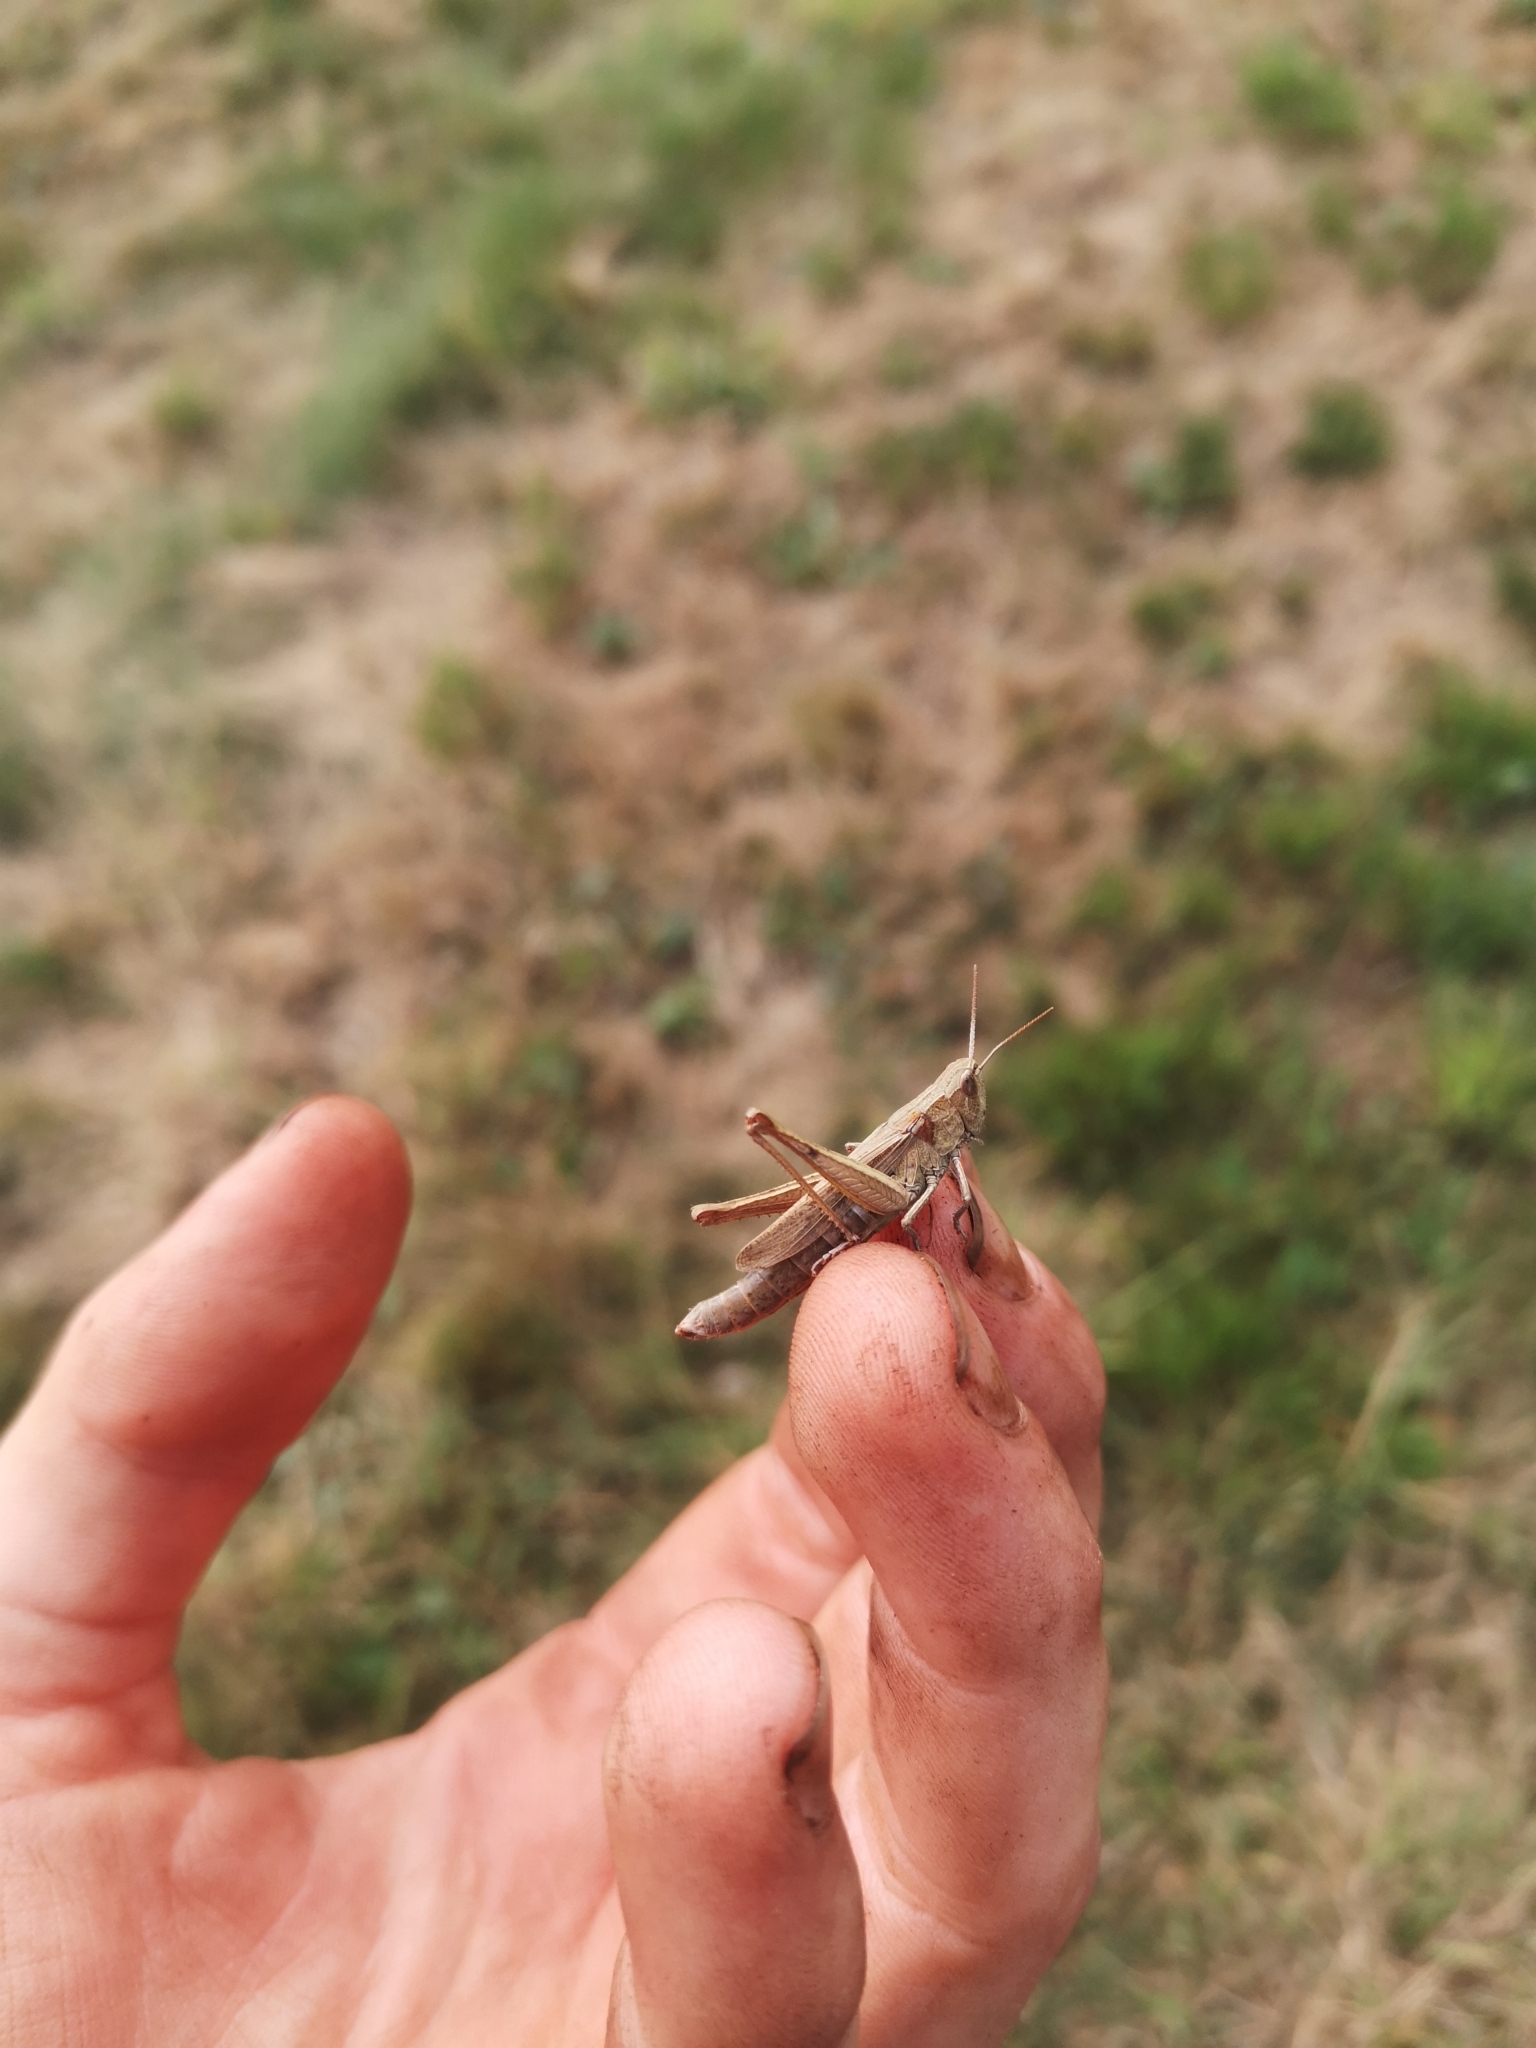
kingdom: Animalia
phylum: Arthropoda
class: Insecta
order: Orthoptera
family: Acrididae
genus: Chorthippus
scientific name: Chorthippus dorsatus
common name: Steppe grasshopper
